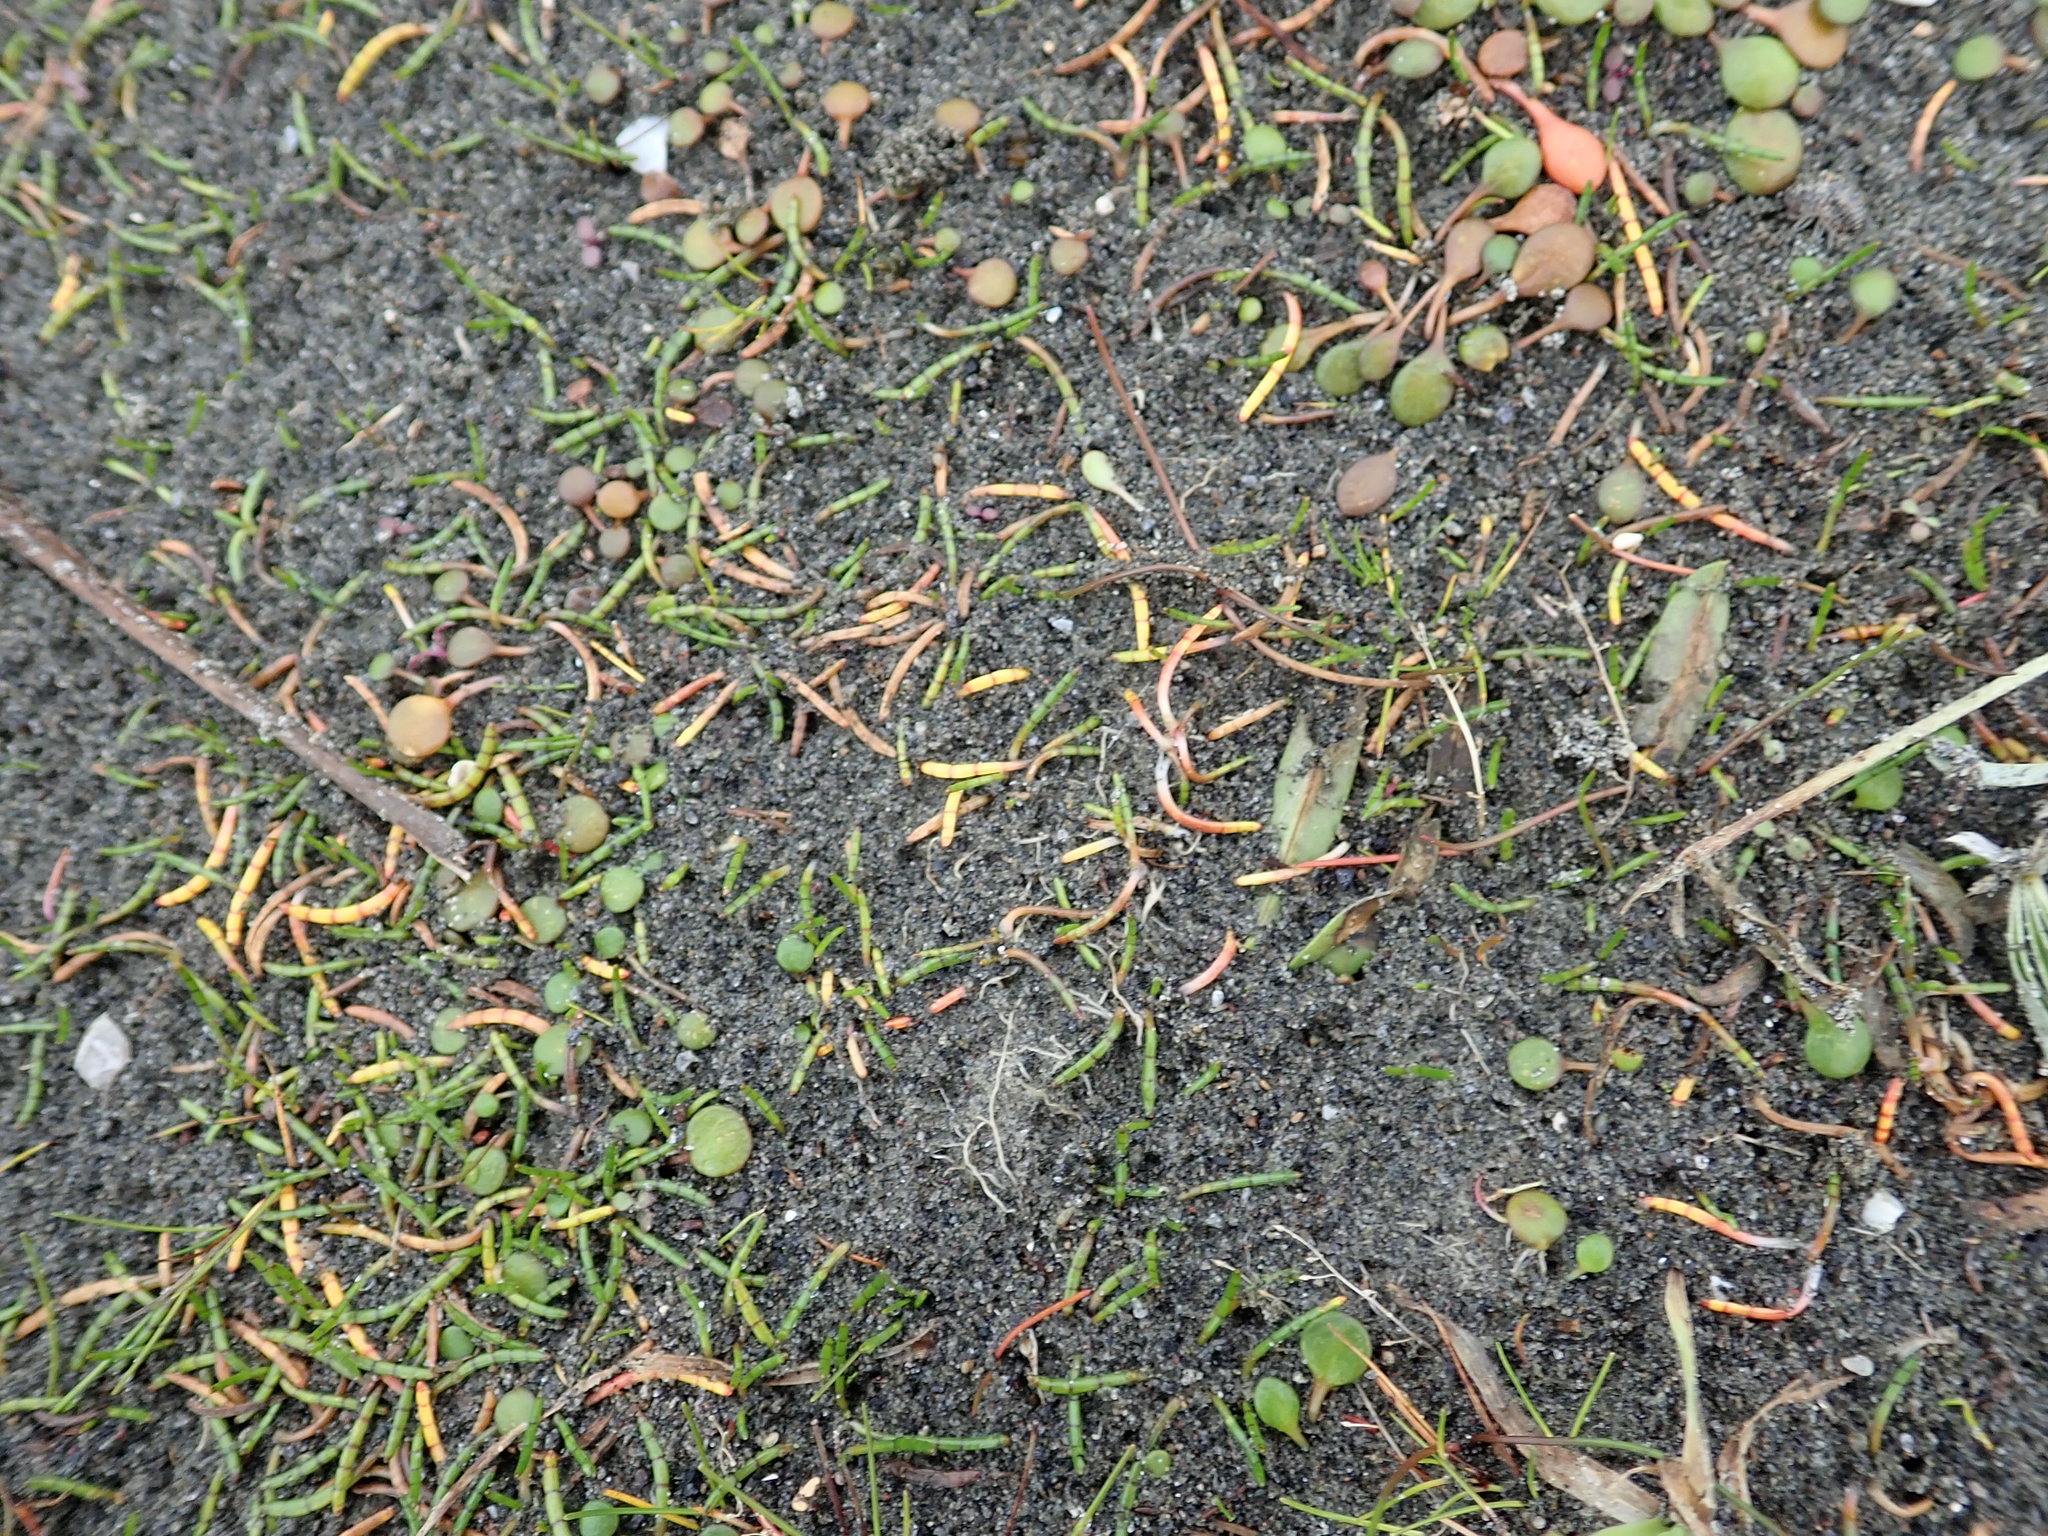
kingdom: Plantae
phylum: Tracheophyta
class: Magnoliopsida
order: Apiales
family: Apiaceae
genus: Lilaeopsis
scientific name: Lilaeopsis novae-zelandiae
